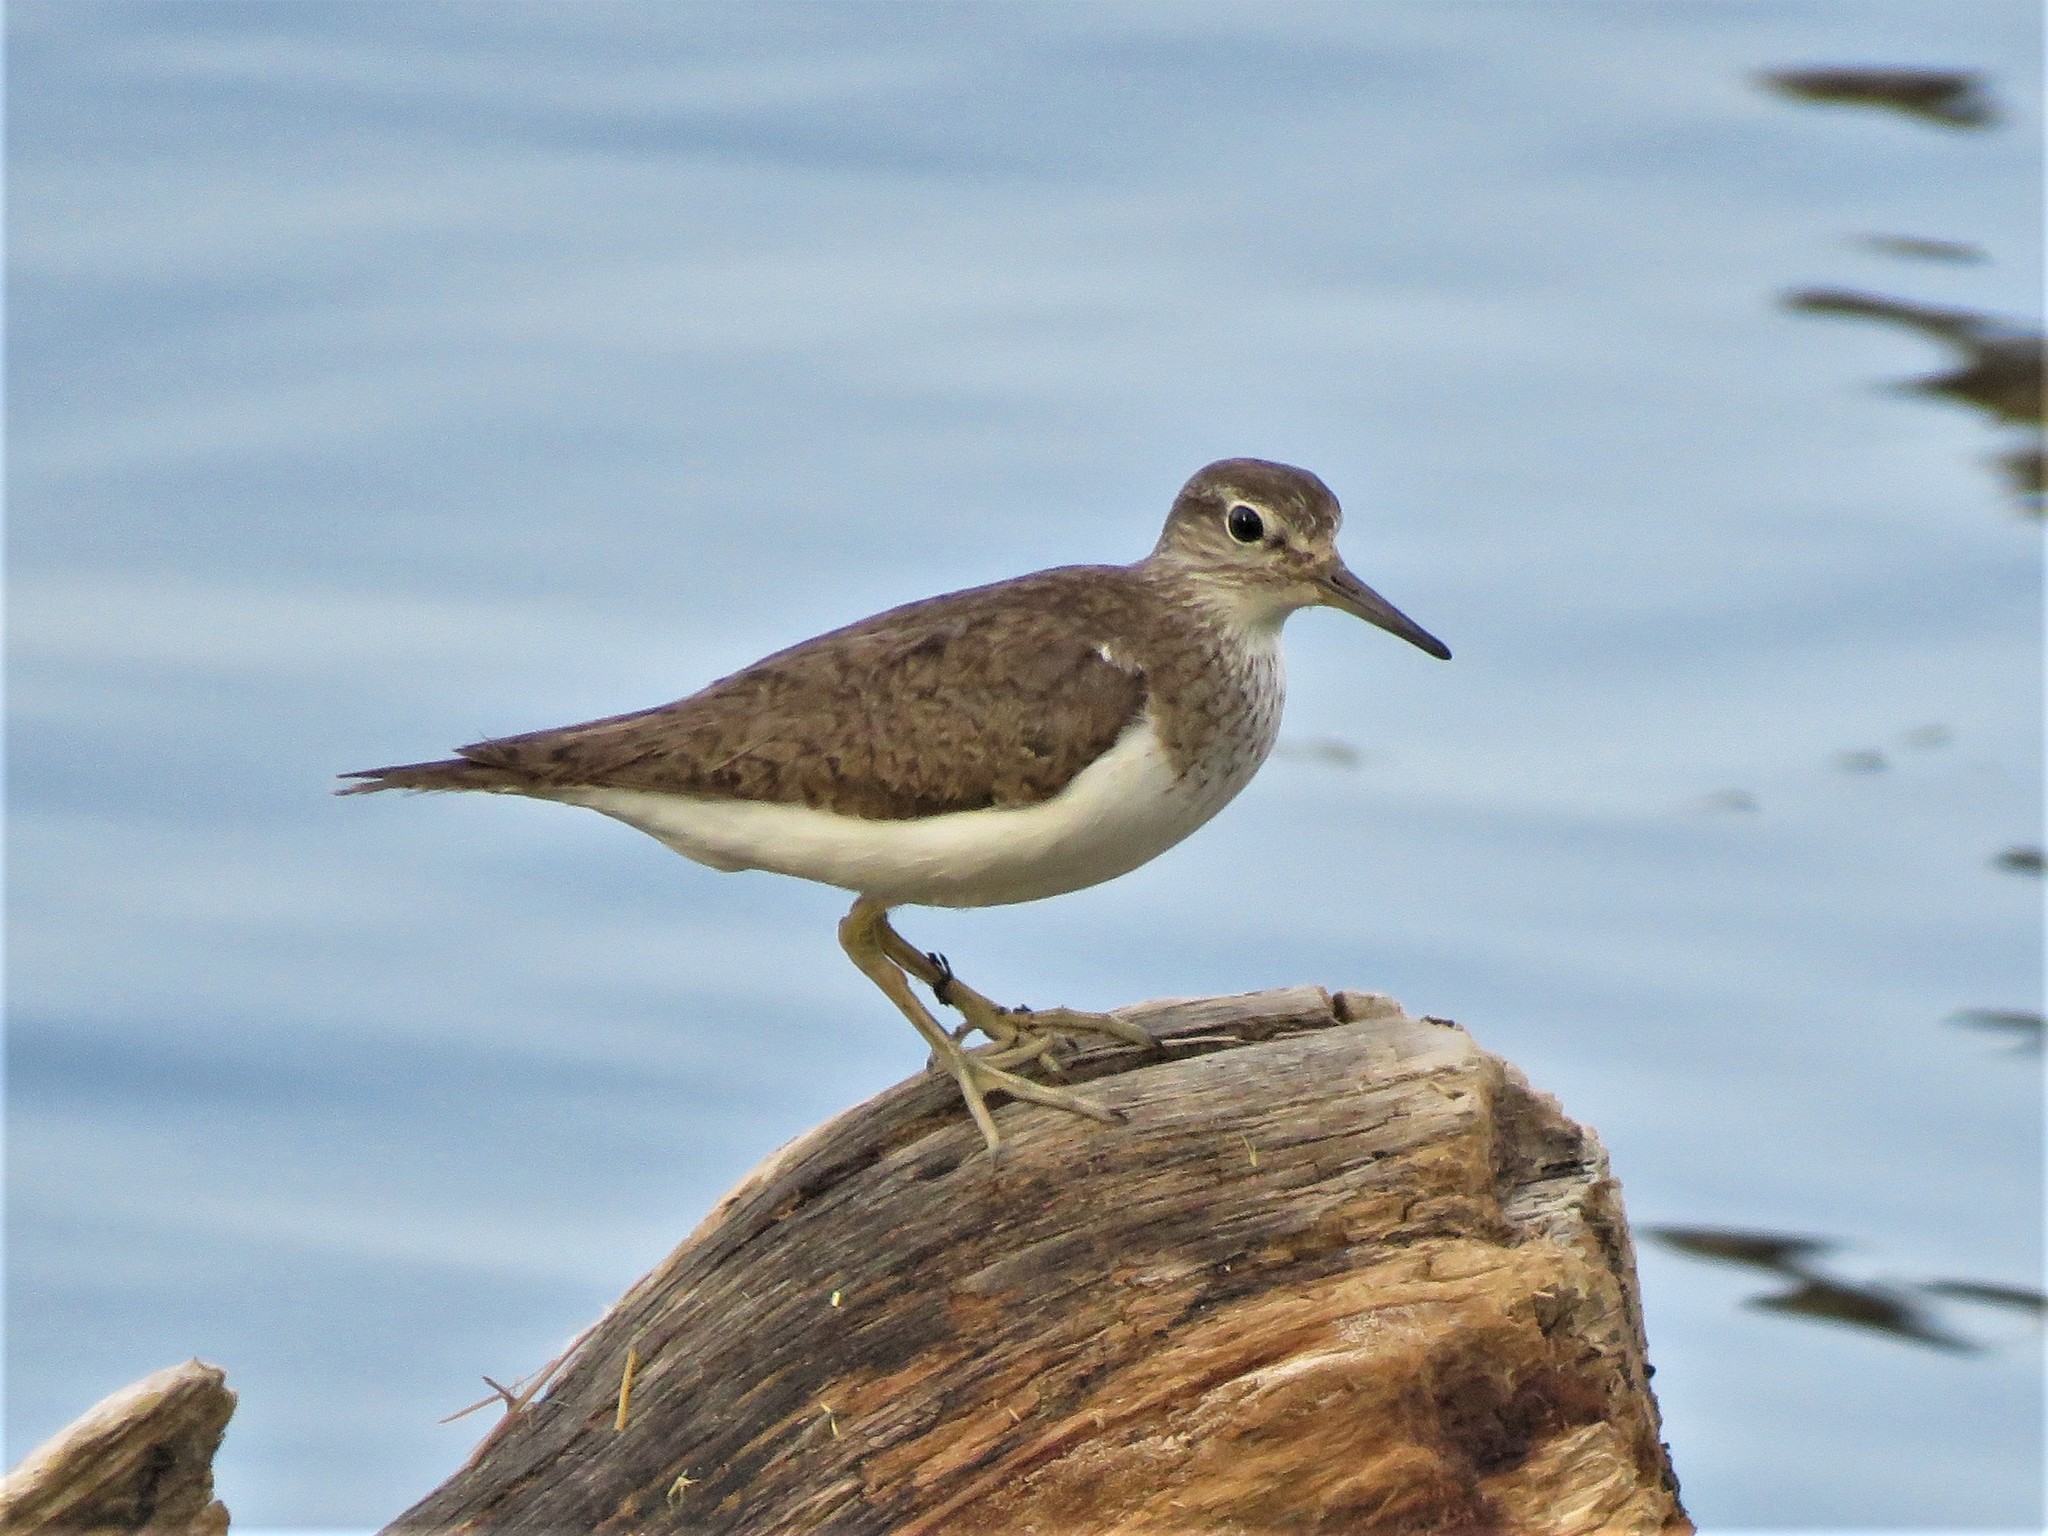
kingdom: Animalia
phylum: Chordata
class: Aves
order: Charadriiformes
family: Scolopacidae
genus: Actitis
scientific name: Actitis hypoleucos
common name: Common sandpiper
